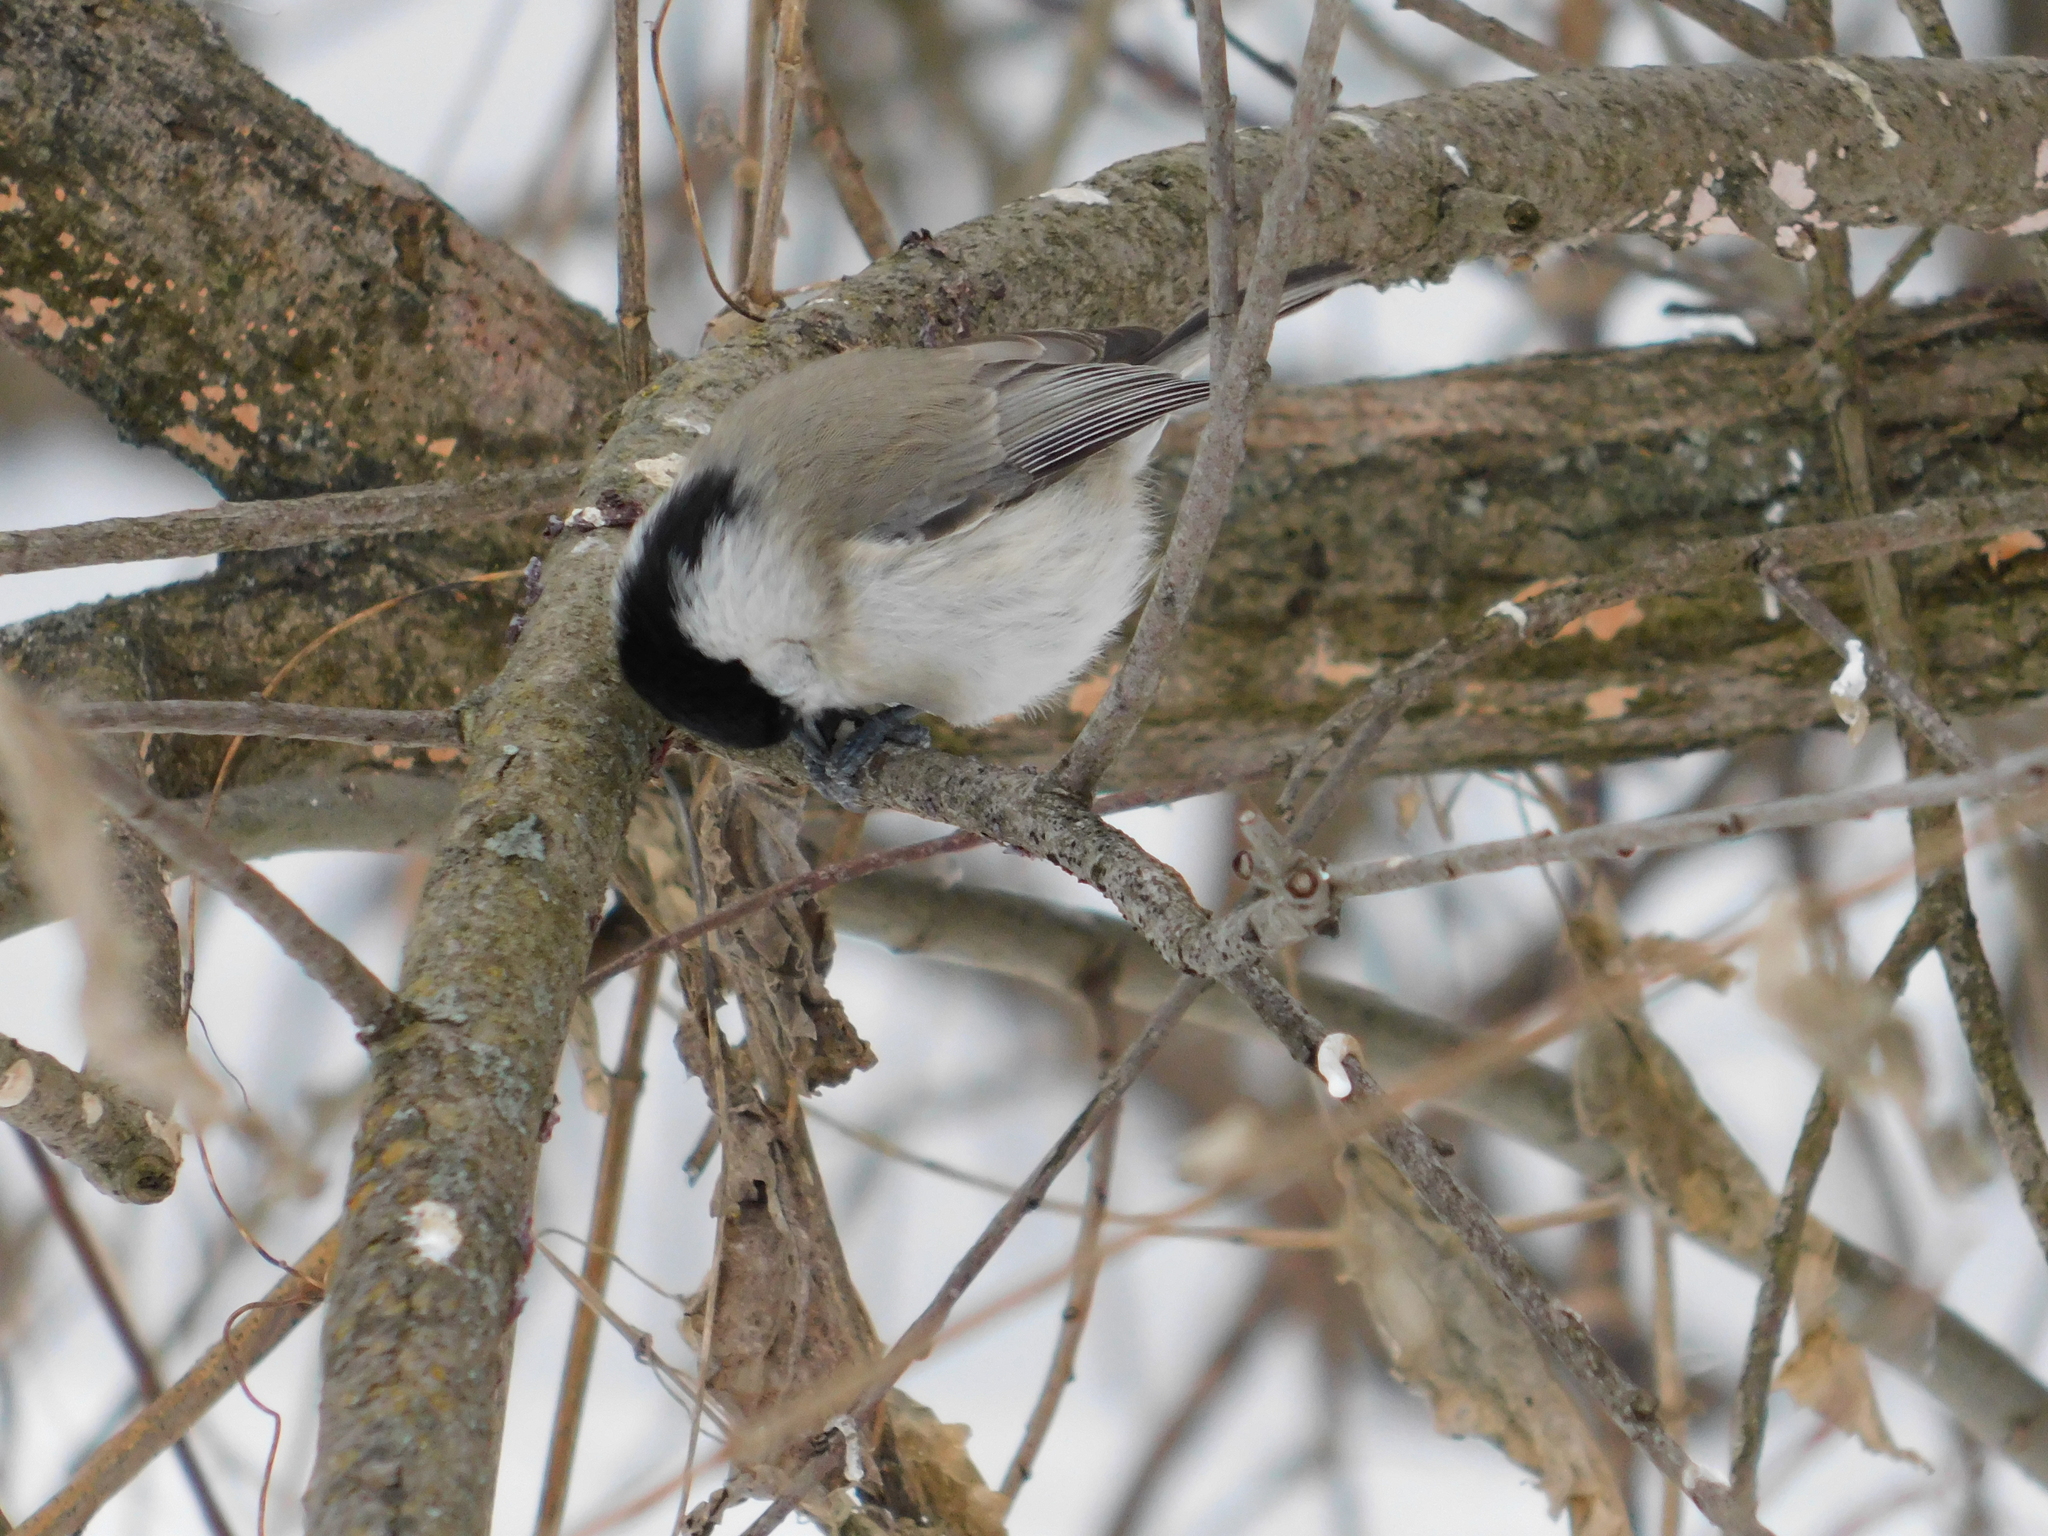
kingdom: Animalia
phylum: Chordata
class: Aves
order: Passeriformes
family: Paridae
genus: Poecile
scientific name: Poecile palustris
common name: Marsh tit
